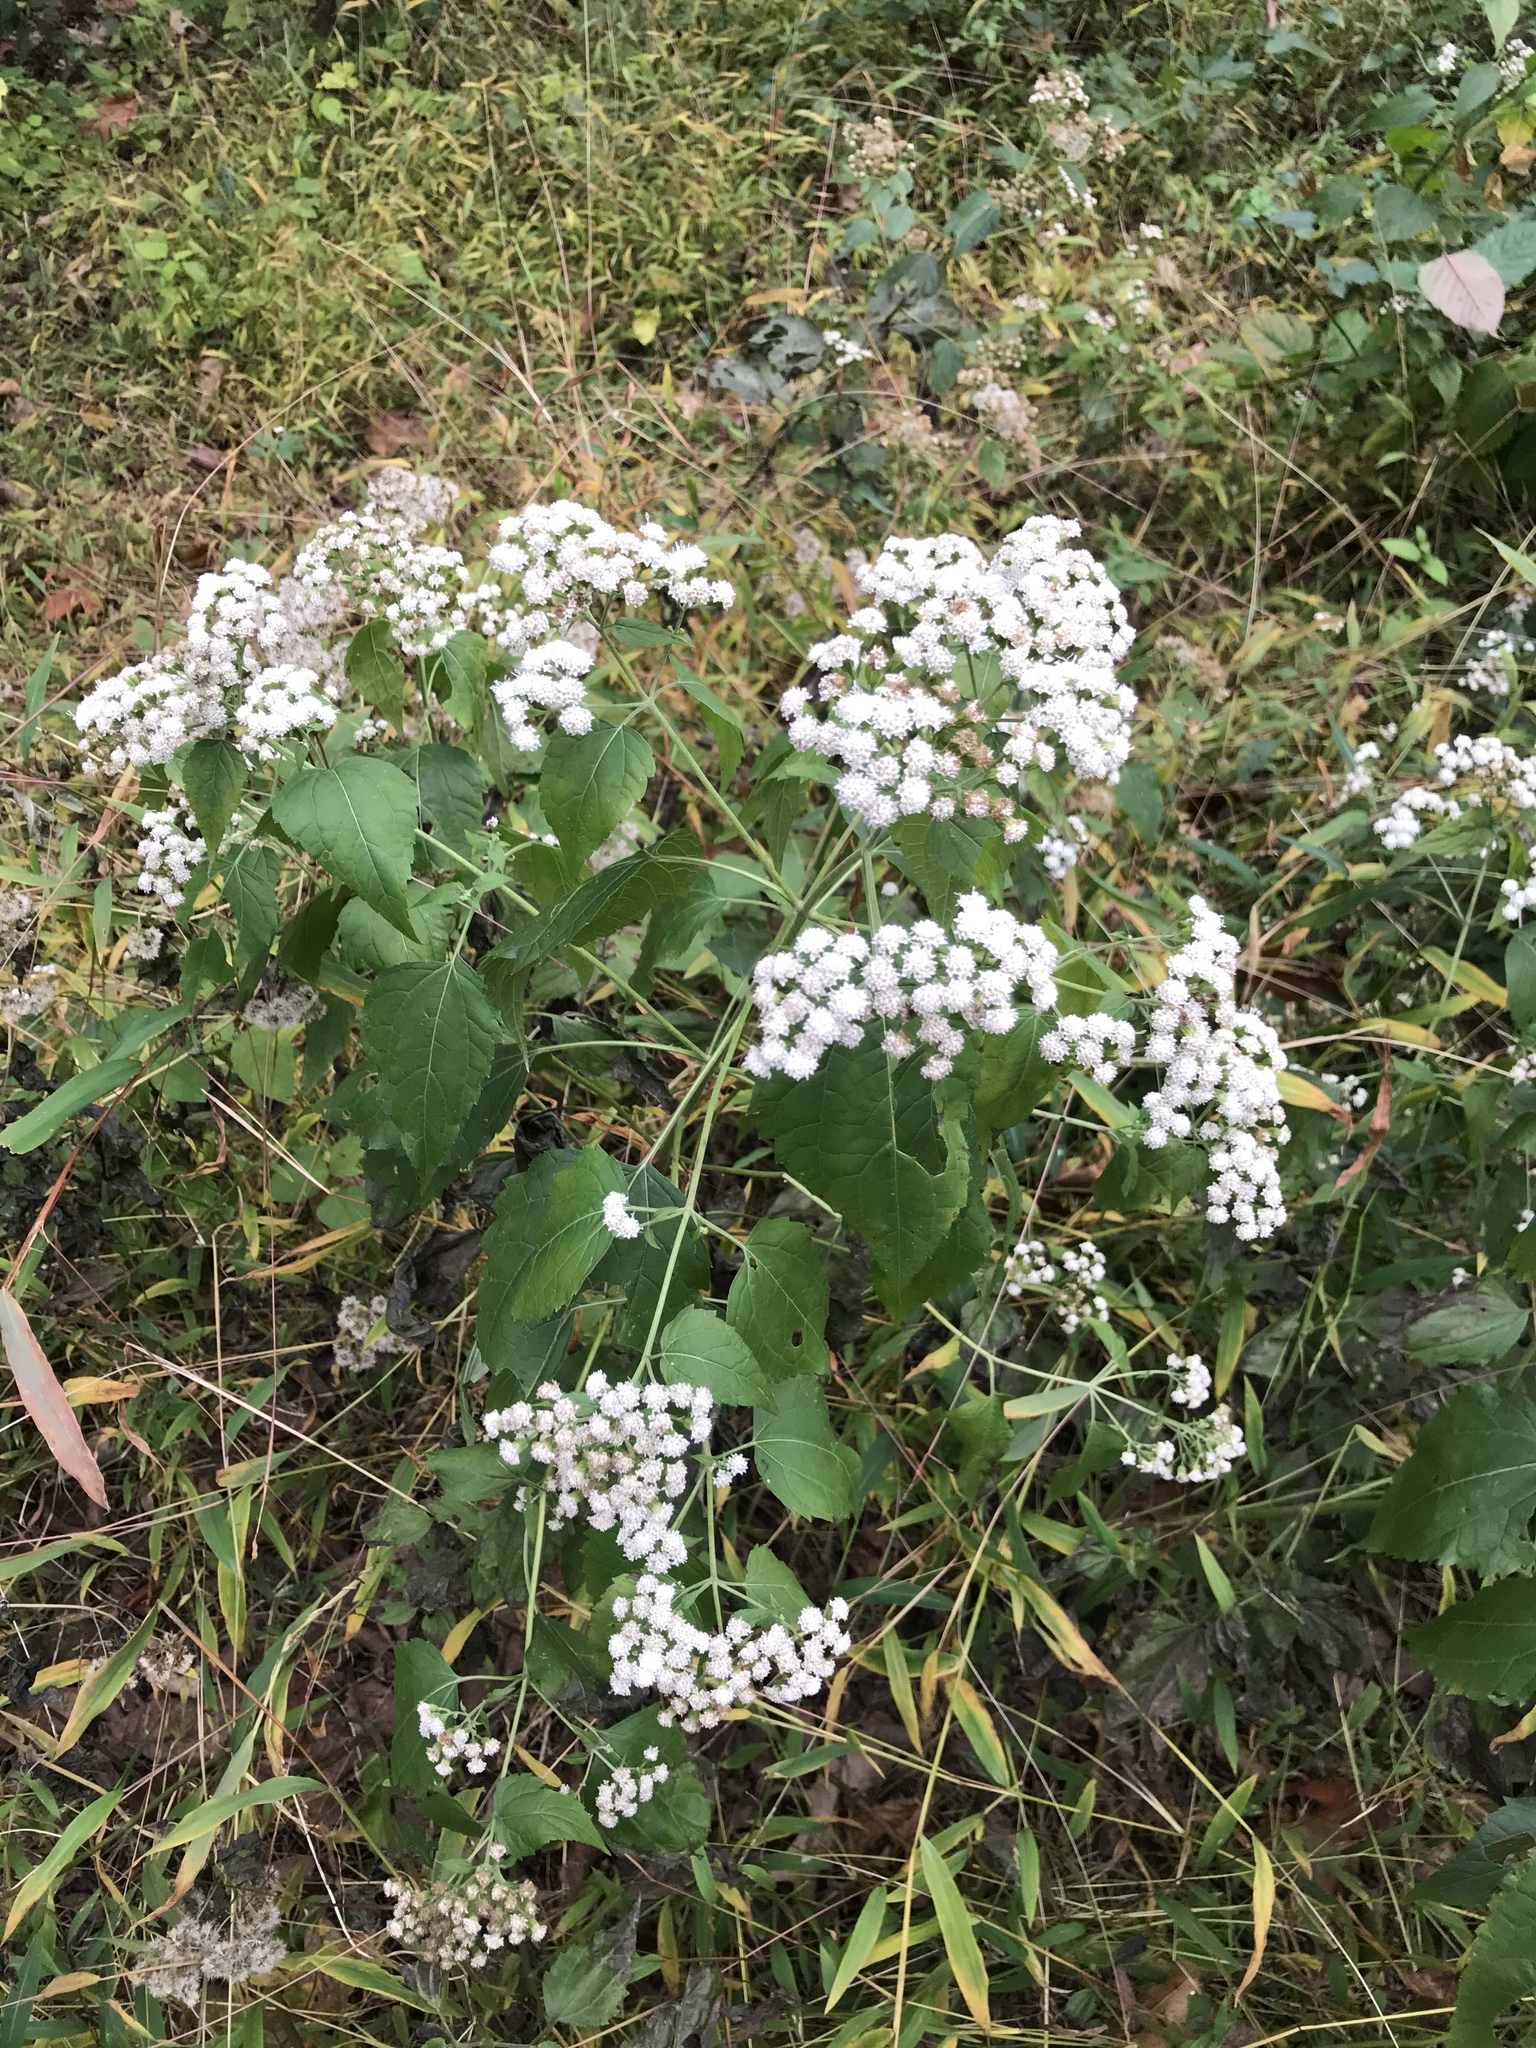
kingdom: Plantae
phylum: Tracheophyta
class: Magnoliopsida
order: Asterales
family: Asteraceae
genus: Ageratina
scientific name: Ageratina altissima
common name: White snakeroot
